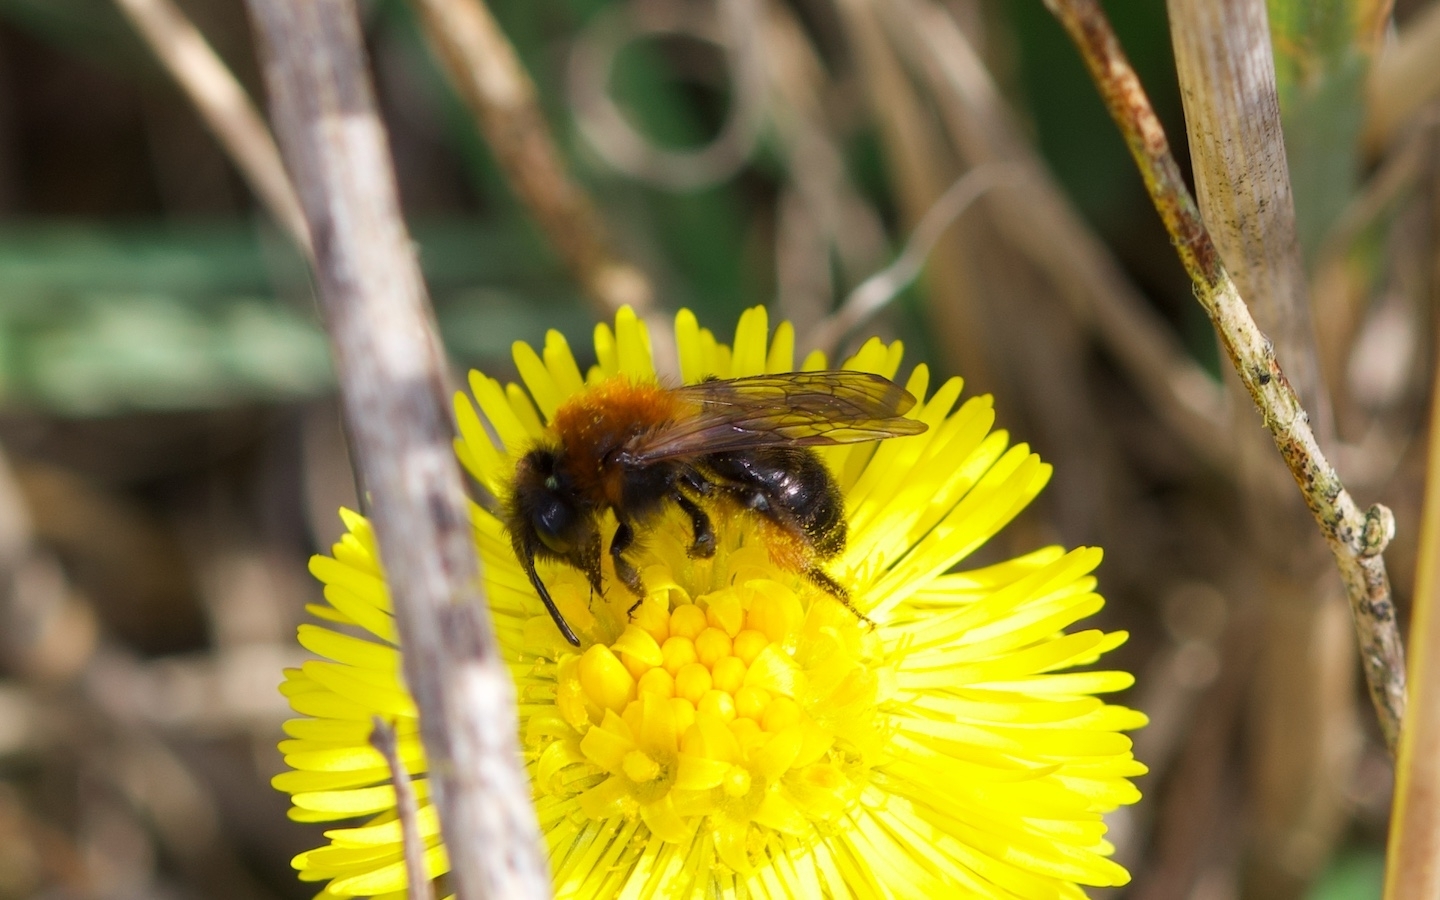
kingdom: Animalia
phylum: Arthropoda
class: Insecta
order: Hymenoptera
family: Andrenidae
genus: Andrena
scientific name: Andrena bicolor
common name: Gwynne's mining bee
